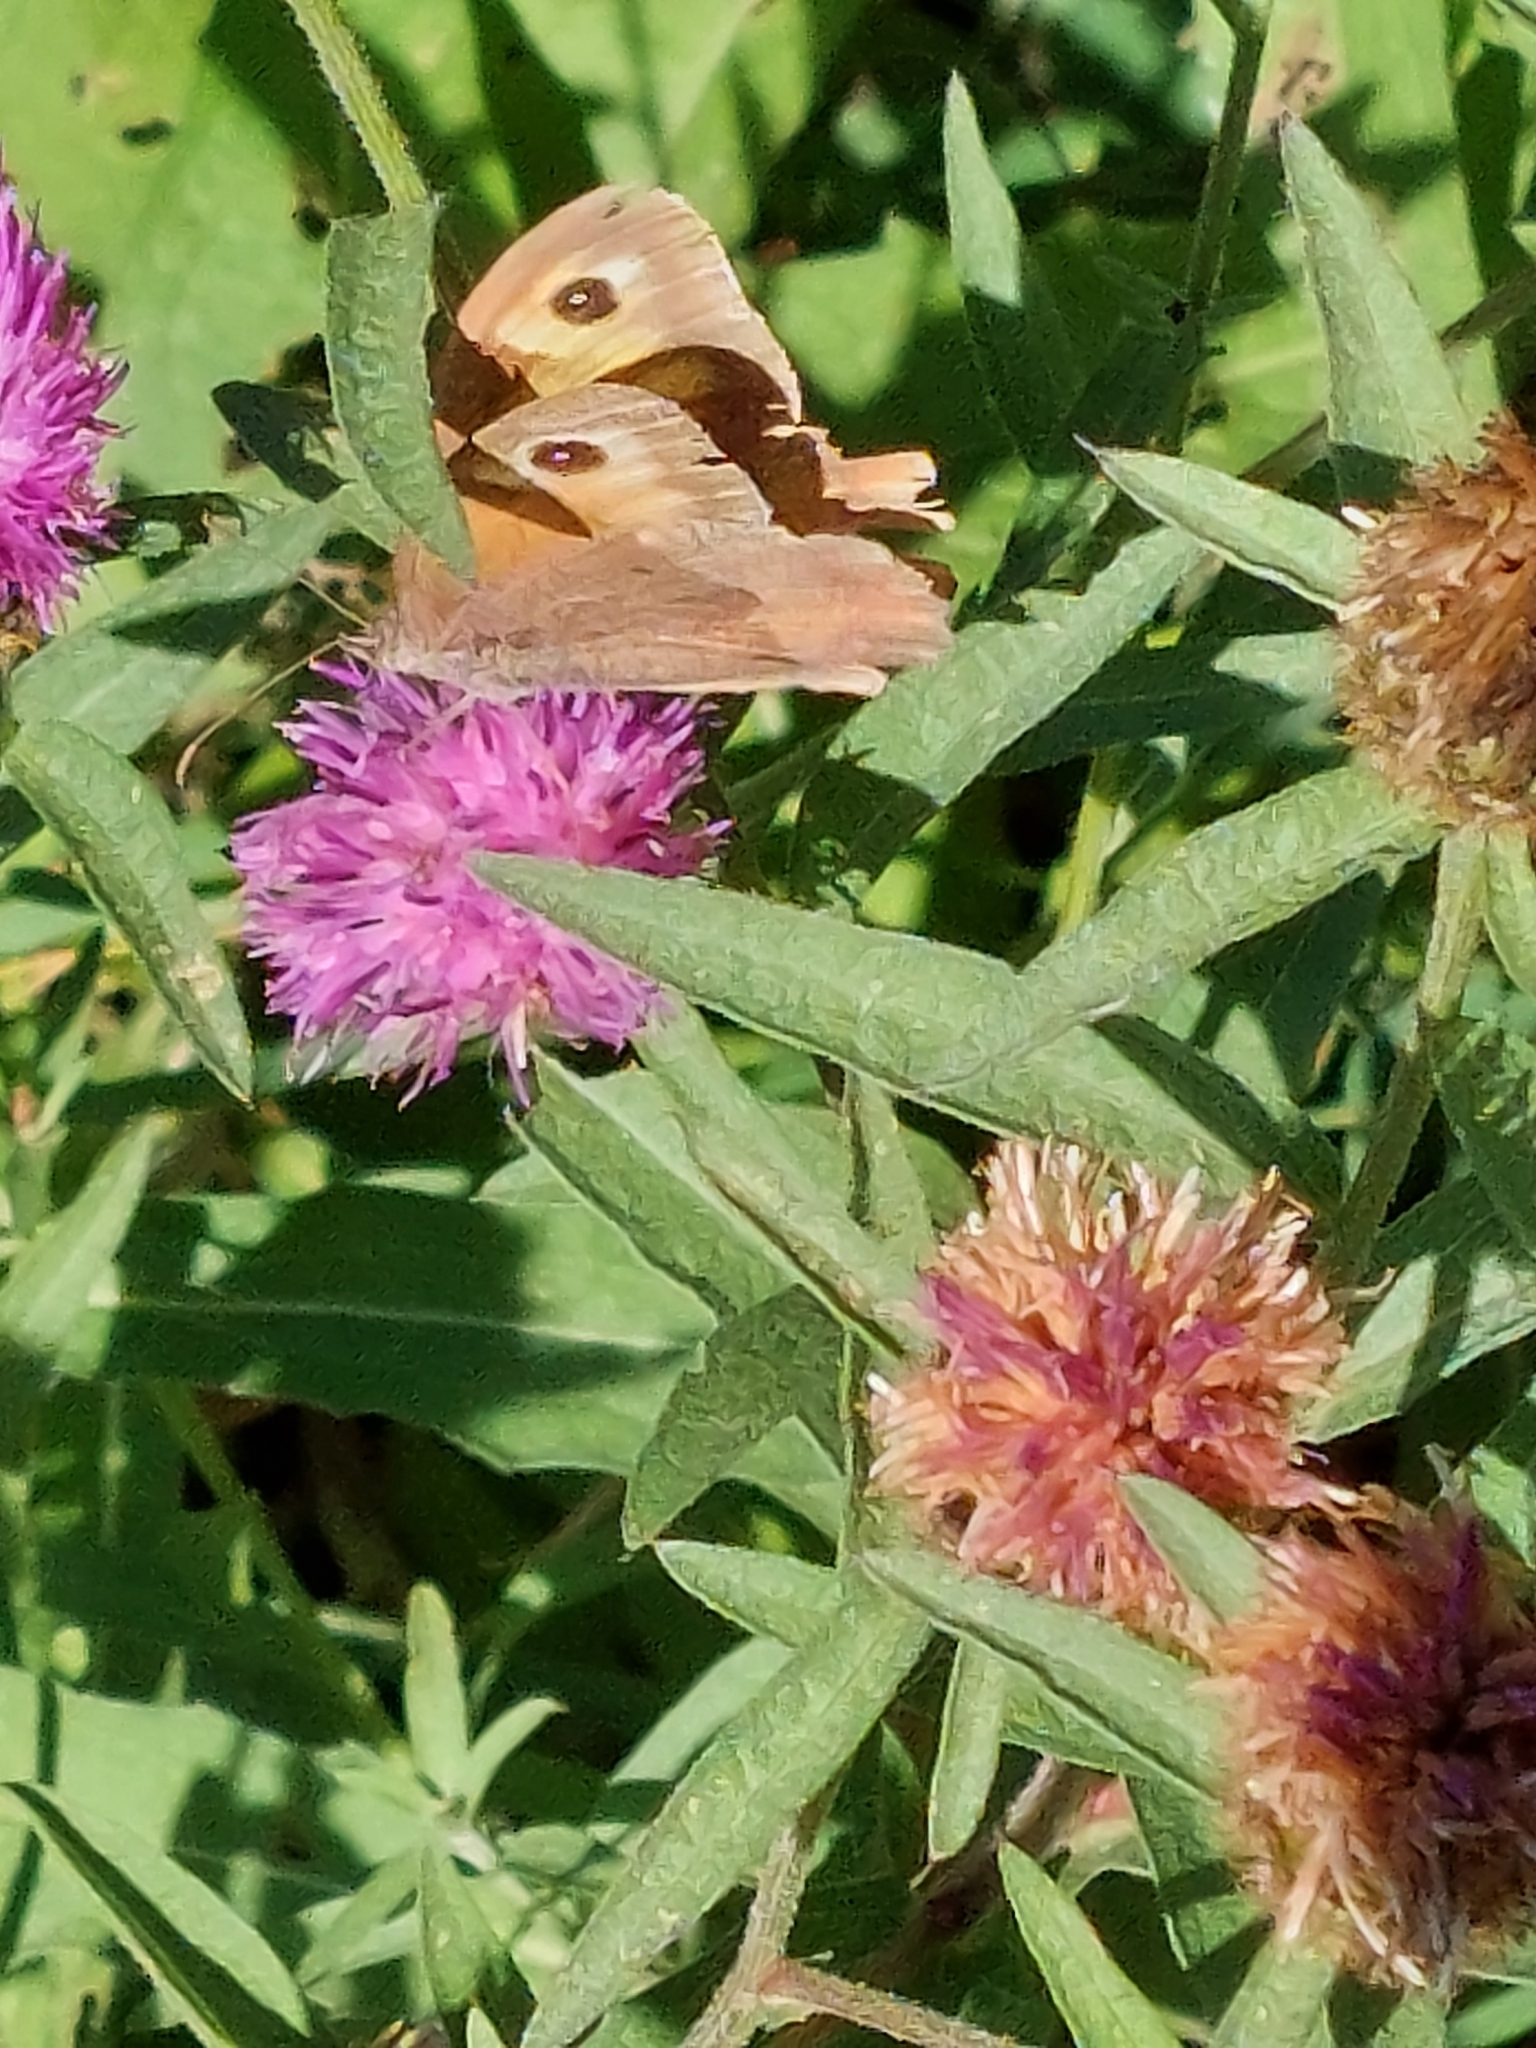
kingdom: Animalia
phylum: Arthropoda
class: Insecta
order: Lepidoptera
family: Nymphalidae
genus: Maniola
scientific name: Maniola jurtina
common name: Meadow brown
